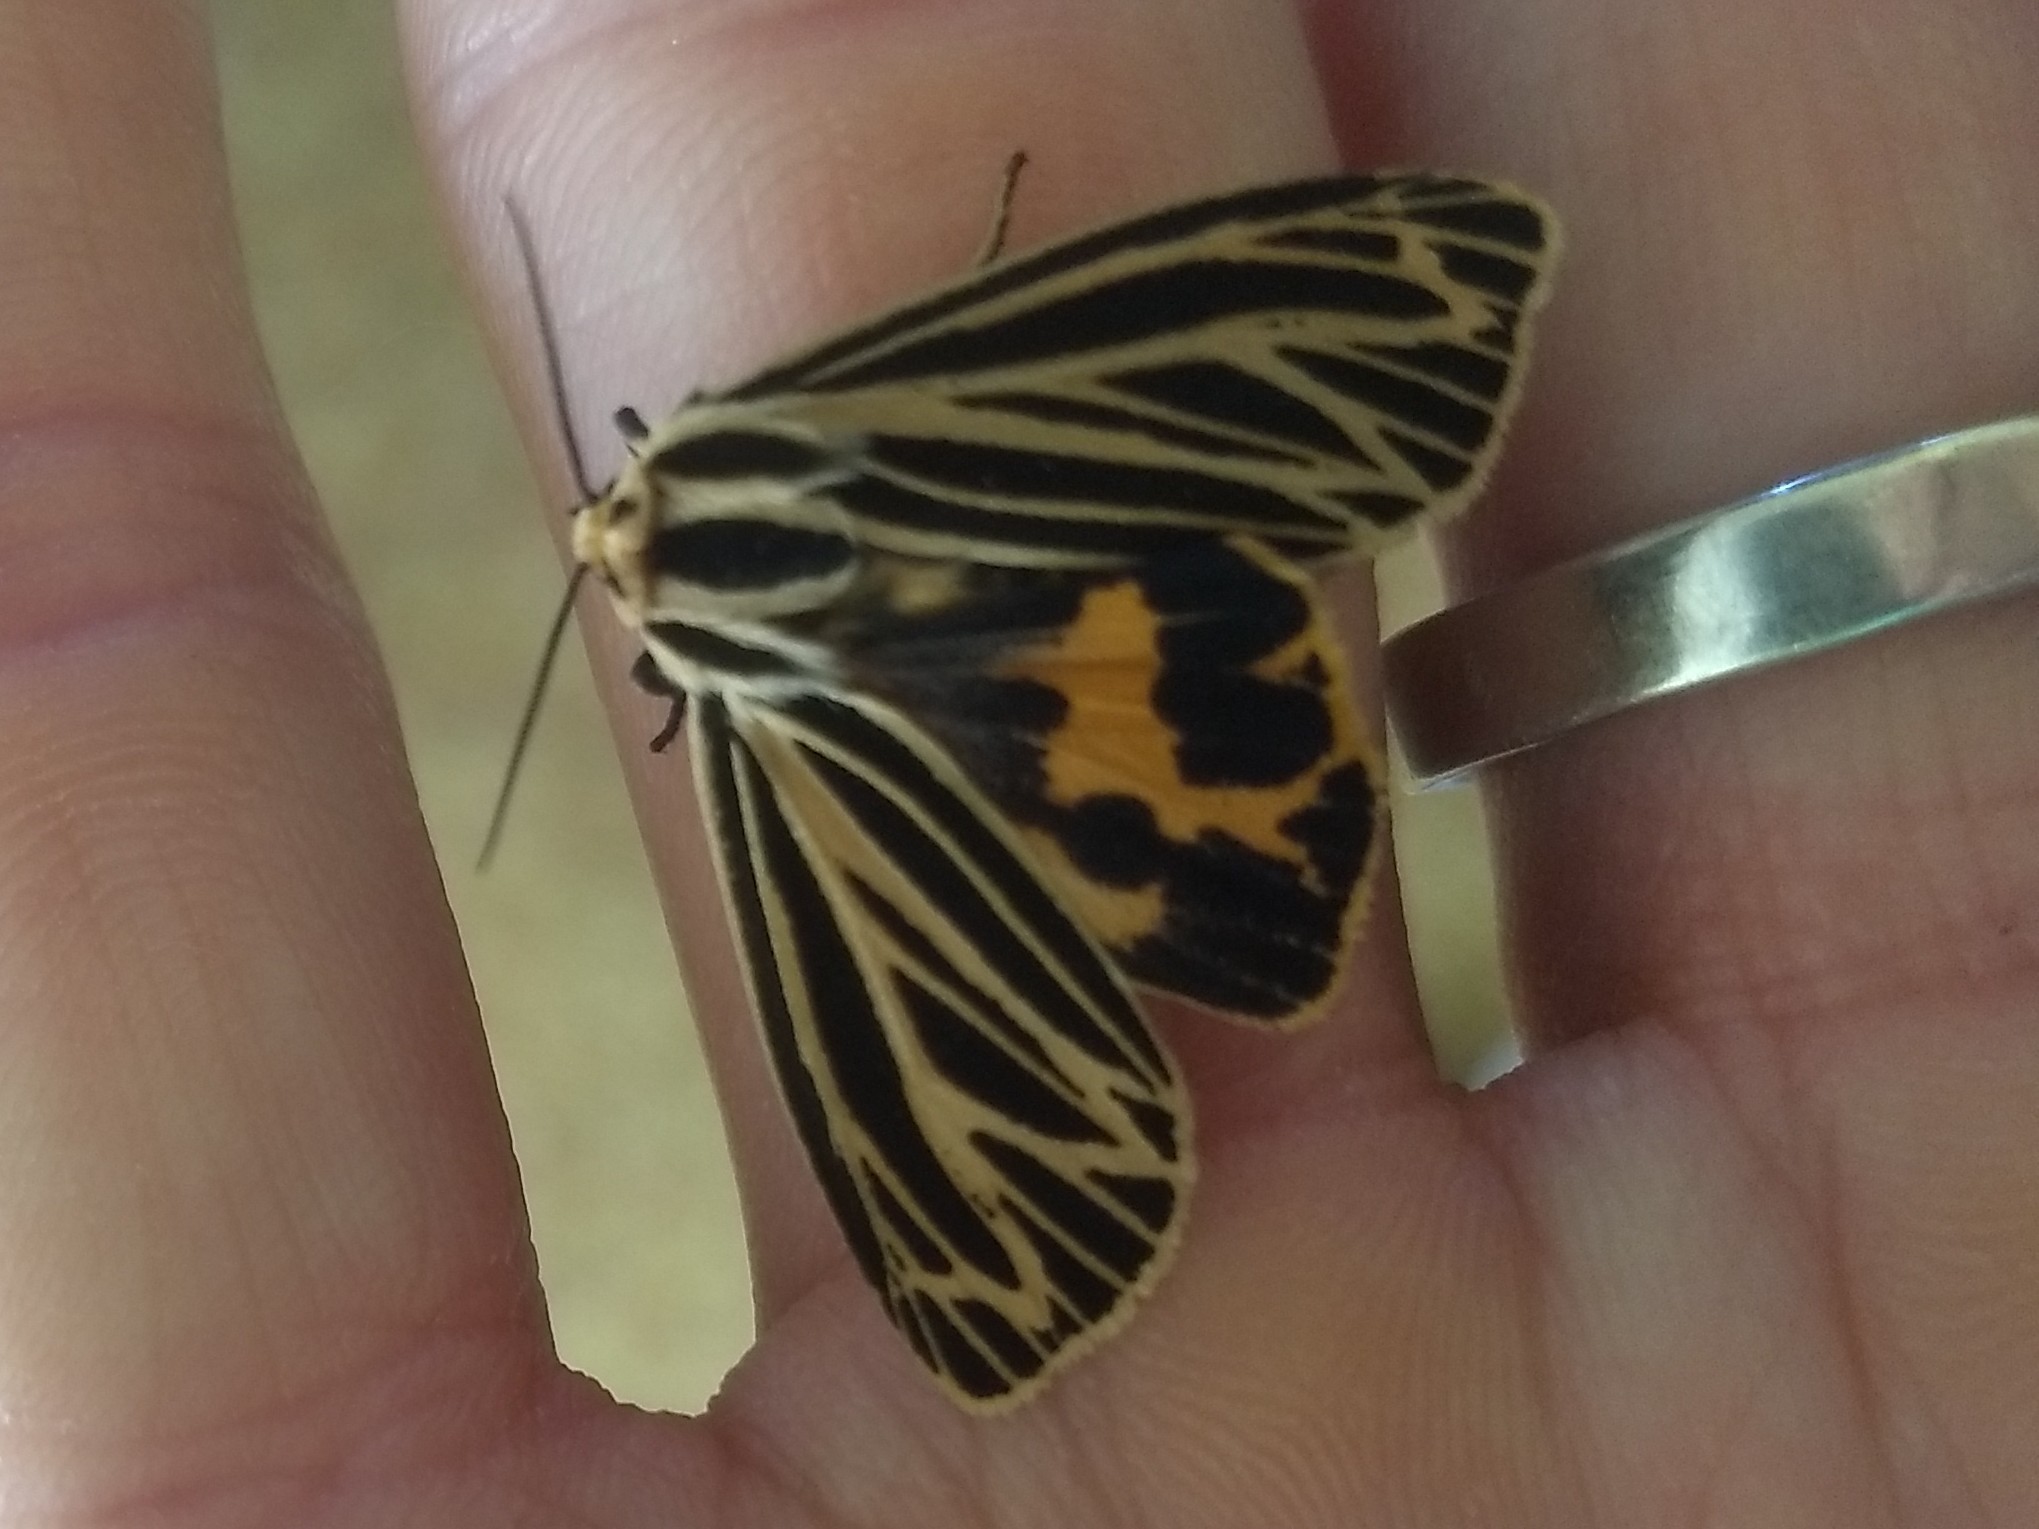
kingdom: Animalia
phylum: Arthropoda
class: Insecta
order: Lepidoptera
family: Erebidae
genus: Grammia
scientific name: Grammia virguncula
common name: Little tiger moth
